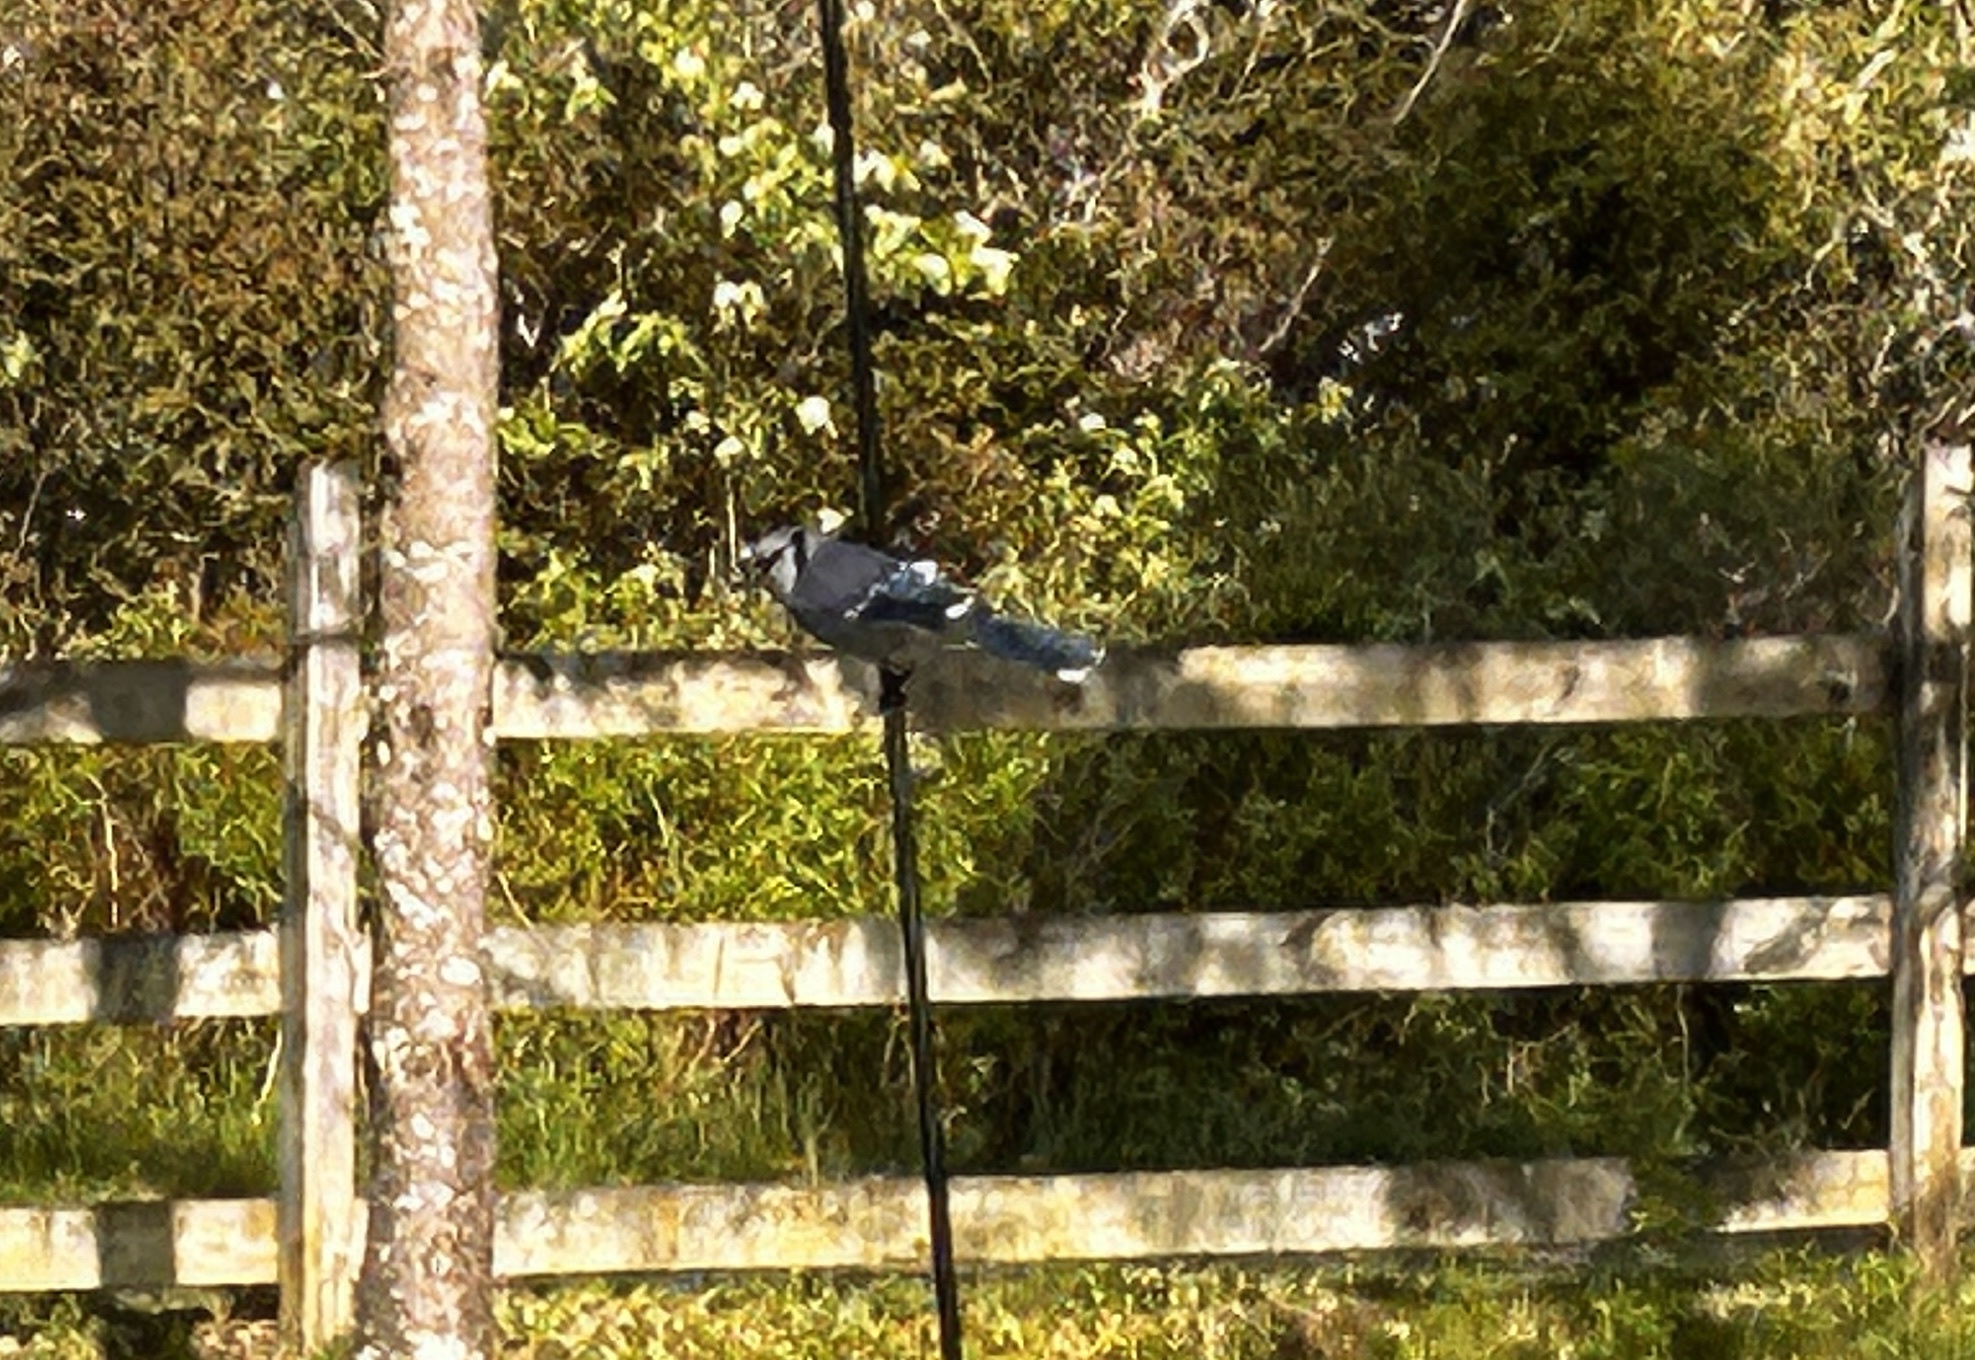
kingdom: Animalia
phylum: Chordata
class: Aves
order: Passeriformes
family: Corvidae
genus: Cyanocitta
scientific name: Cyanocitta cristata
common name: Blue jay
